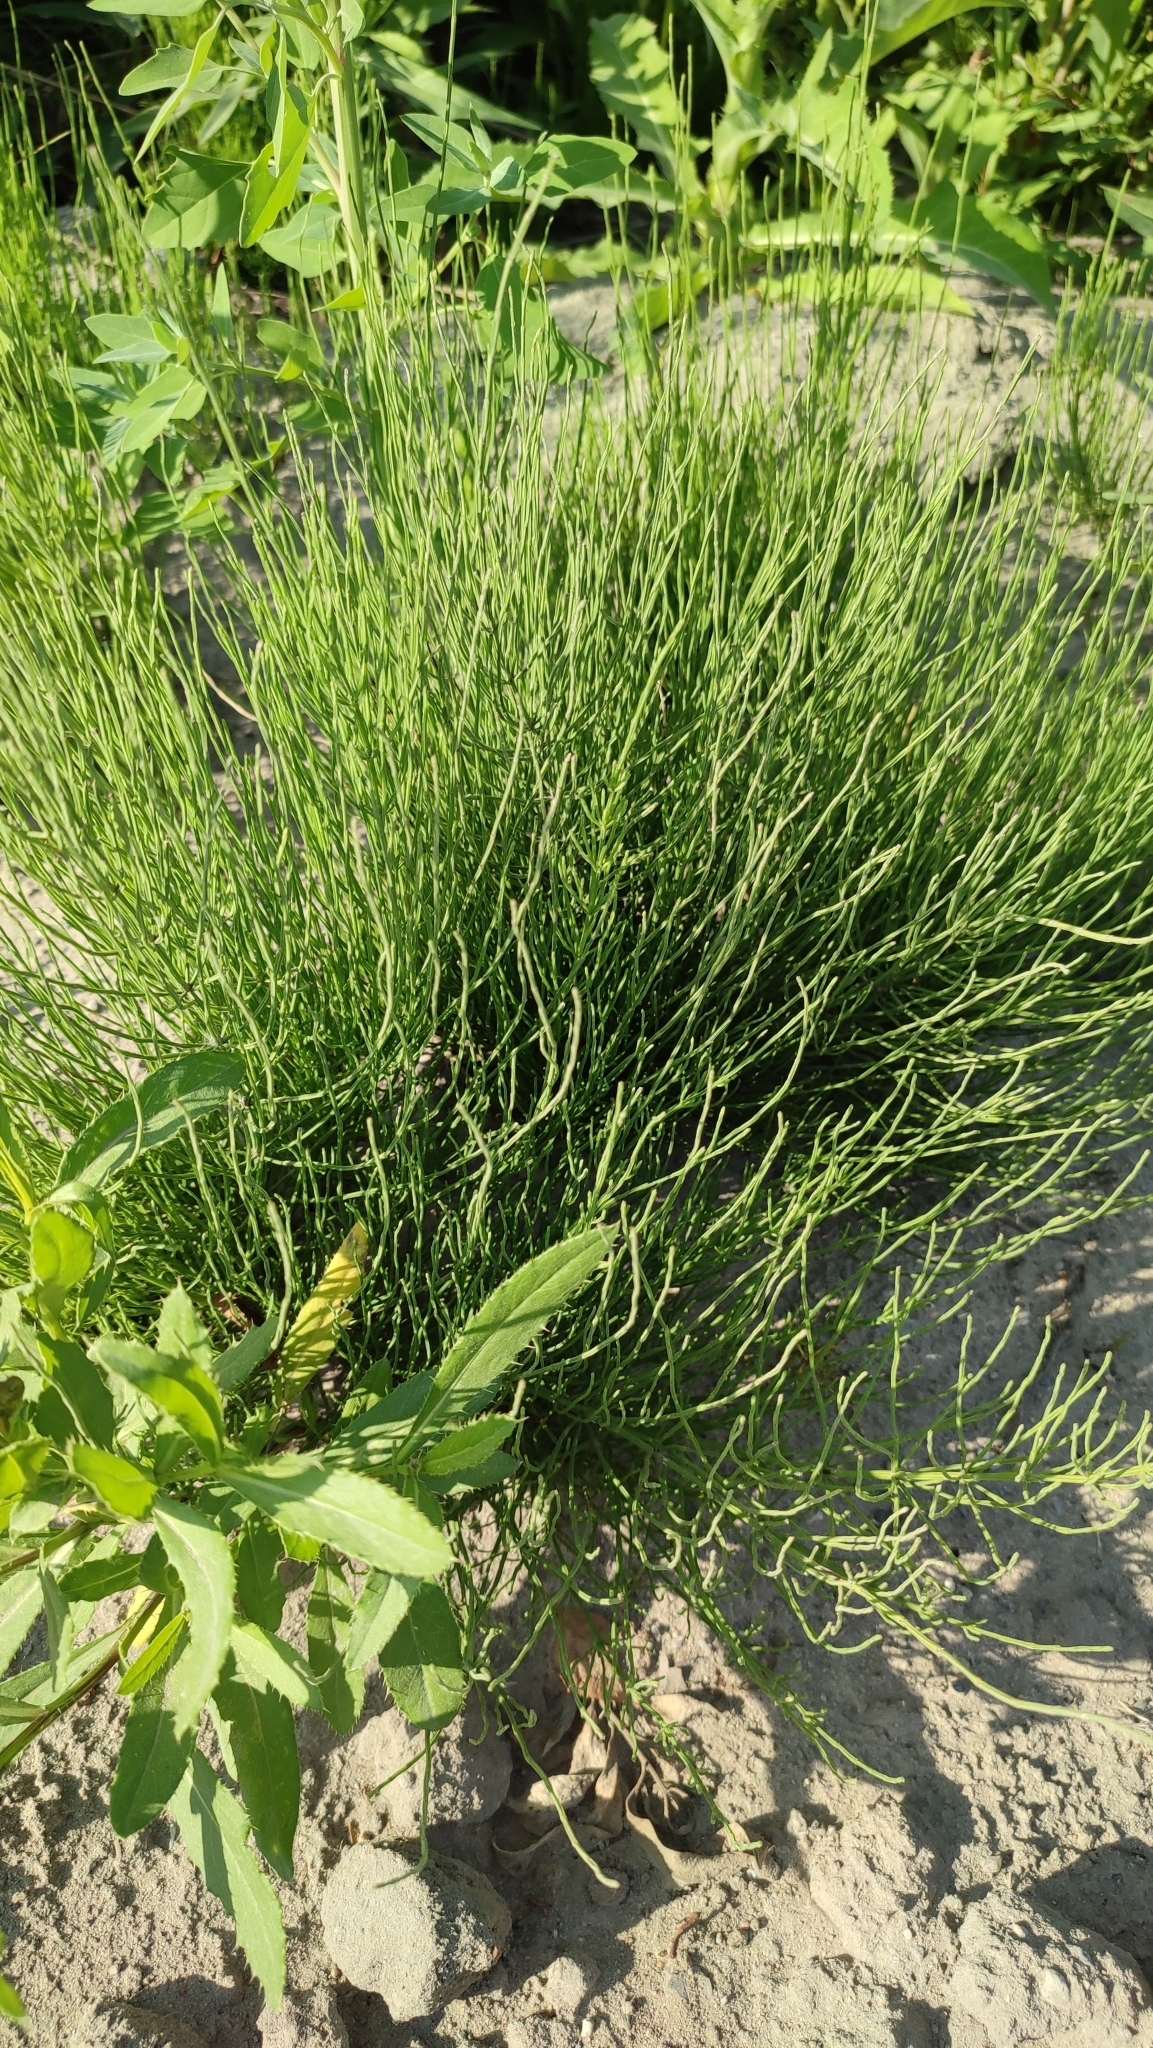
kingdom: Plantae
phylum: Tracheophyta
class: Polypodiopsida
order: Equisetales
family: Equisetaceae
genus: Equisetum
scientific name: Equisetum arvense
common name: Field horsetail
